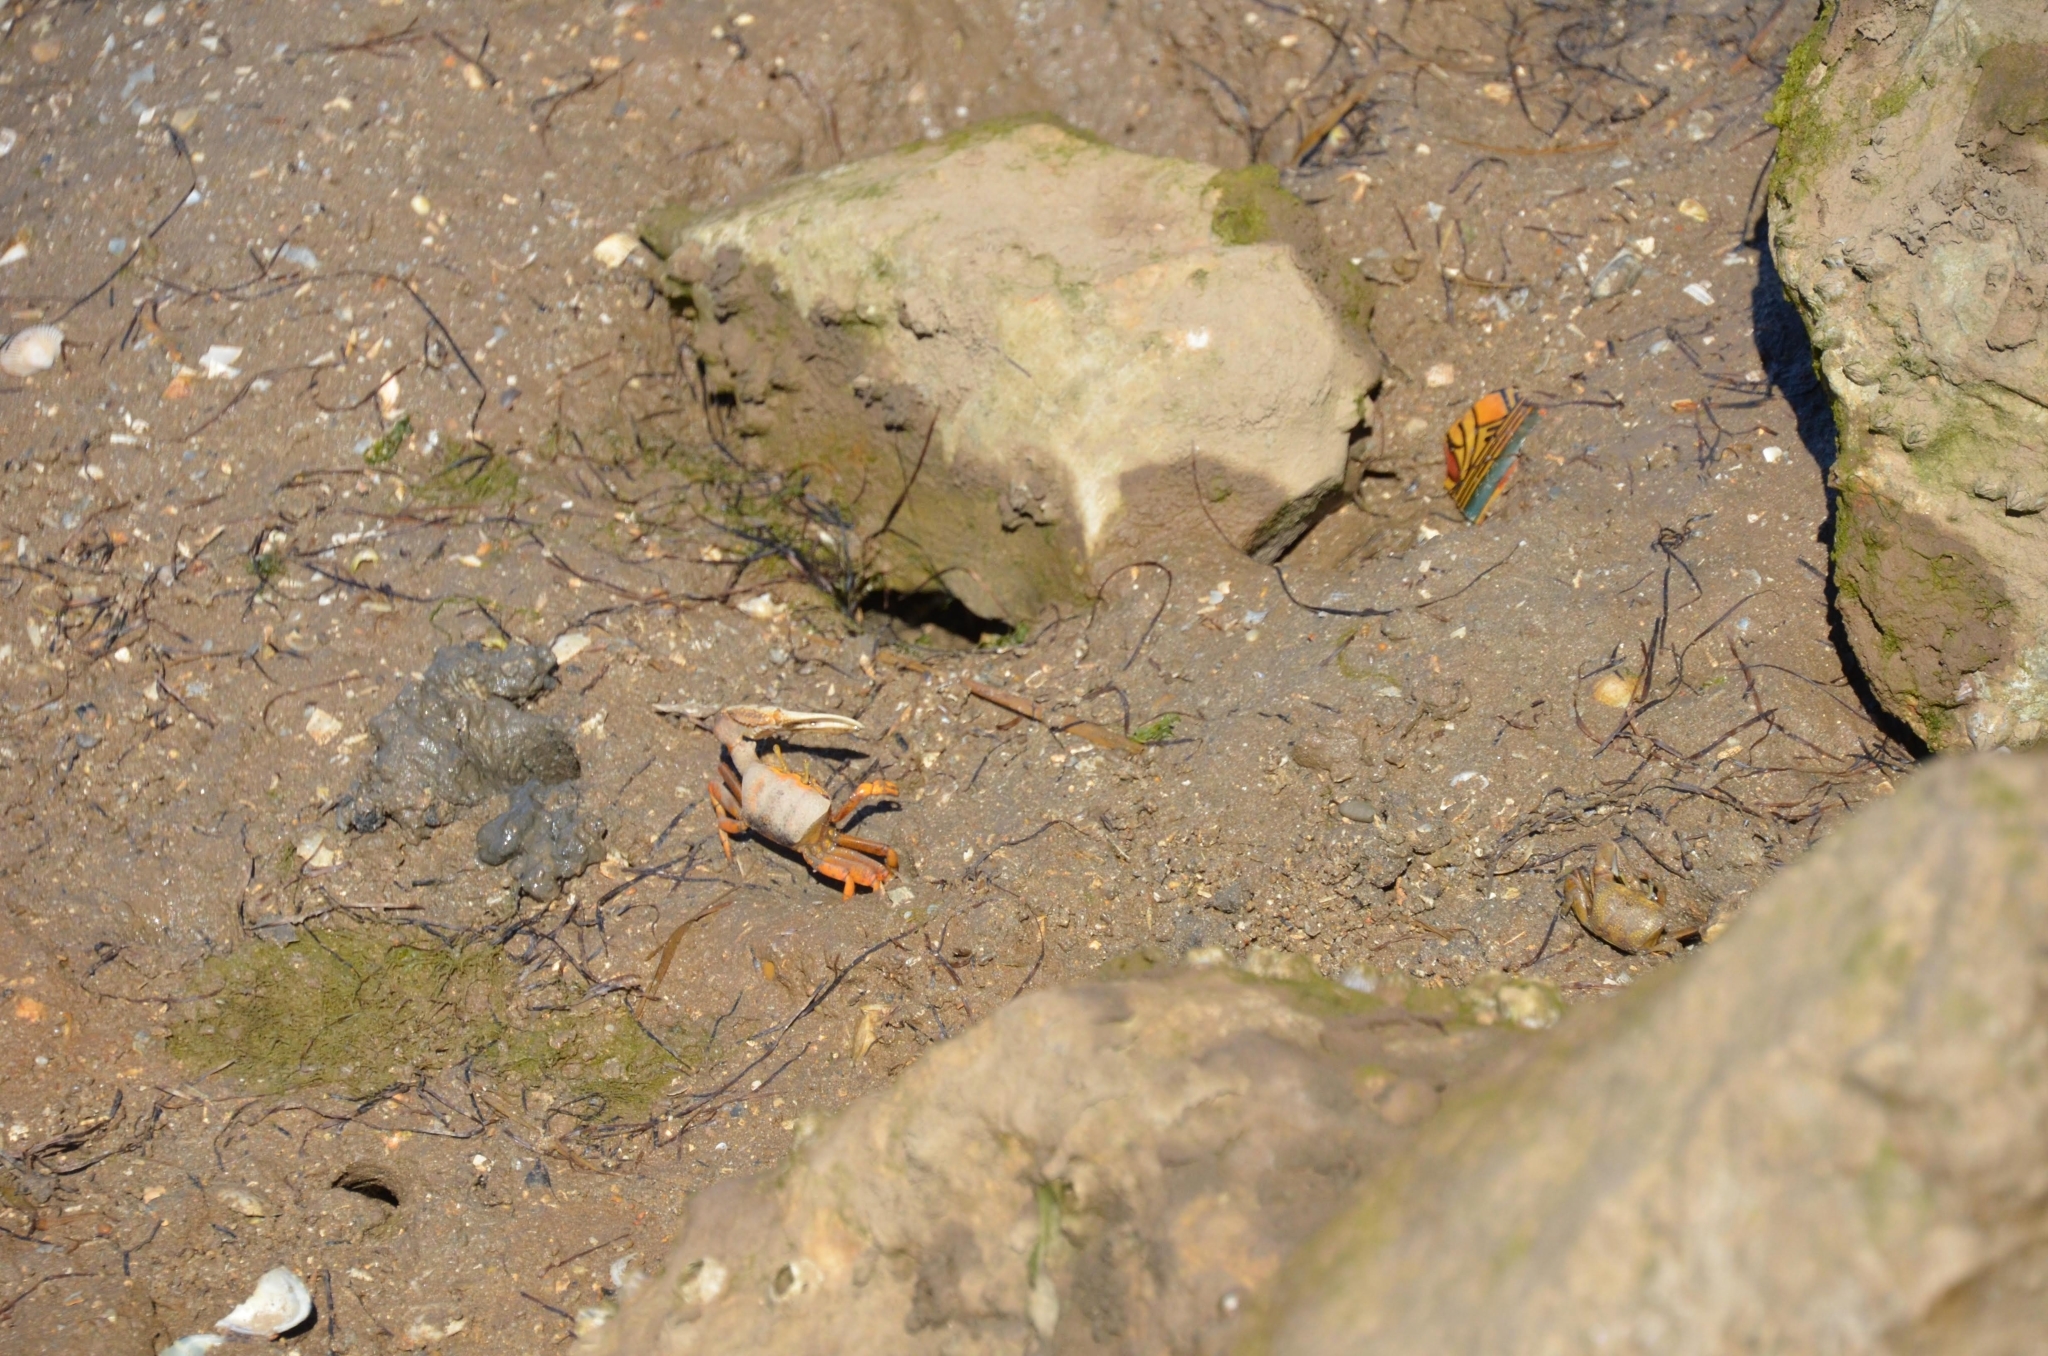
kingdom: Animalia
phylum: Arthropoda
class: Malacostraca
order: Decapoda
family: Ocypodidae
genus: Afruca
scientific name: Afruca tangeri
